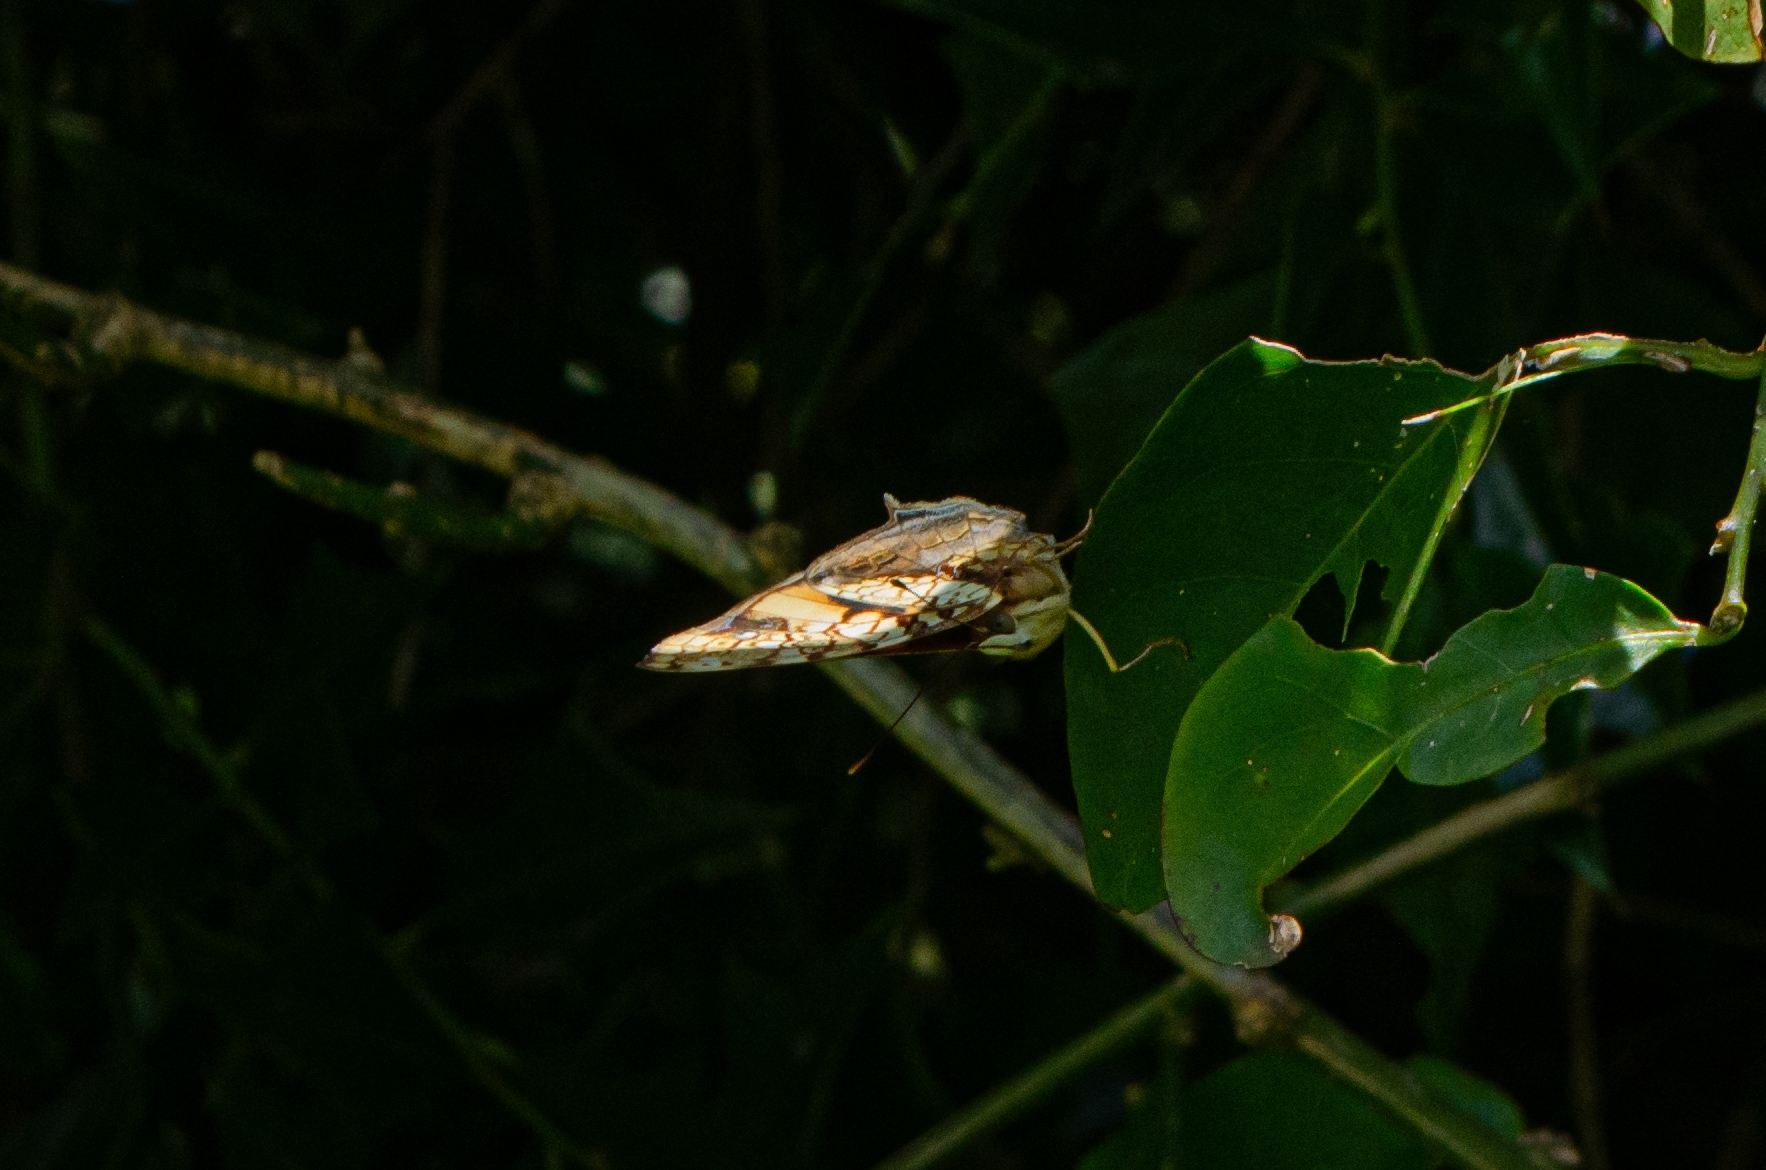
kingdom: Animalia
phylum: Arthropoda
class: Insecta
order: Lepidoptera
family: Nymphalidae
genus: Hypanartia
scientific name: Hypanartia lethe
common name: Orange mapwing
